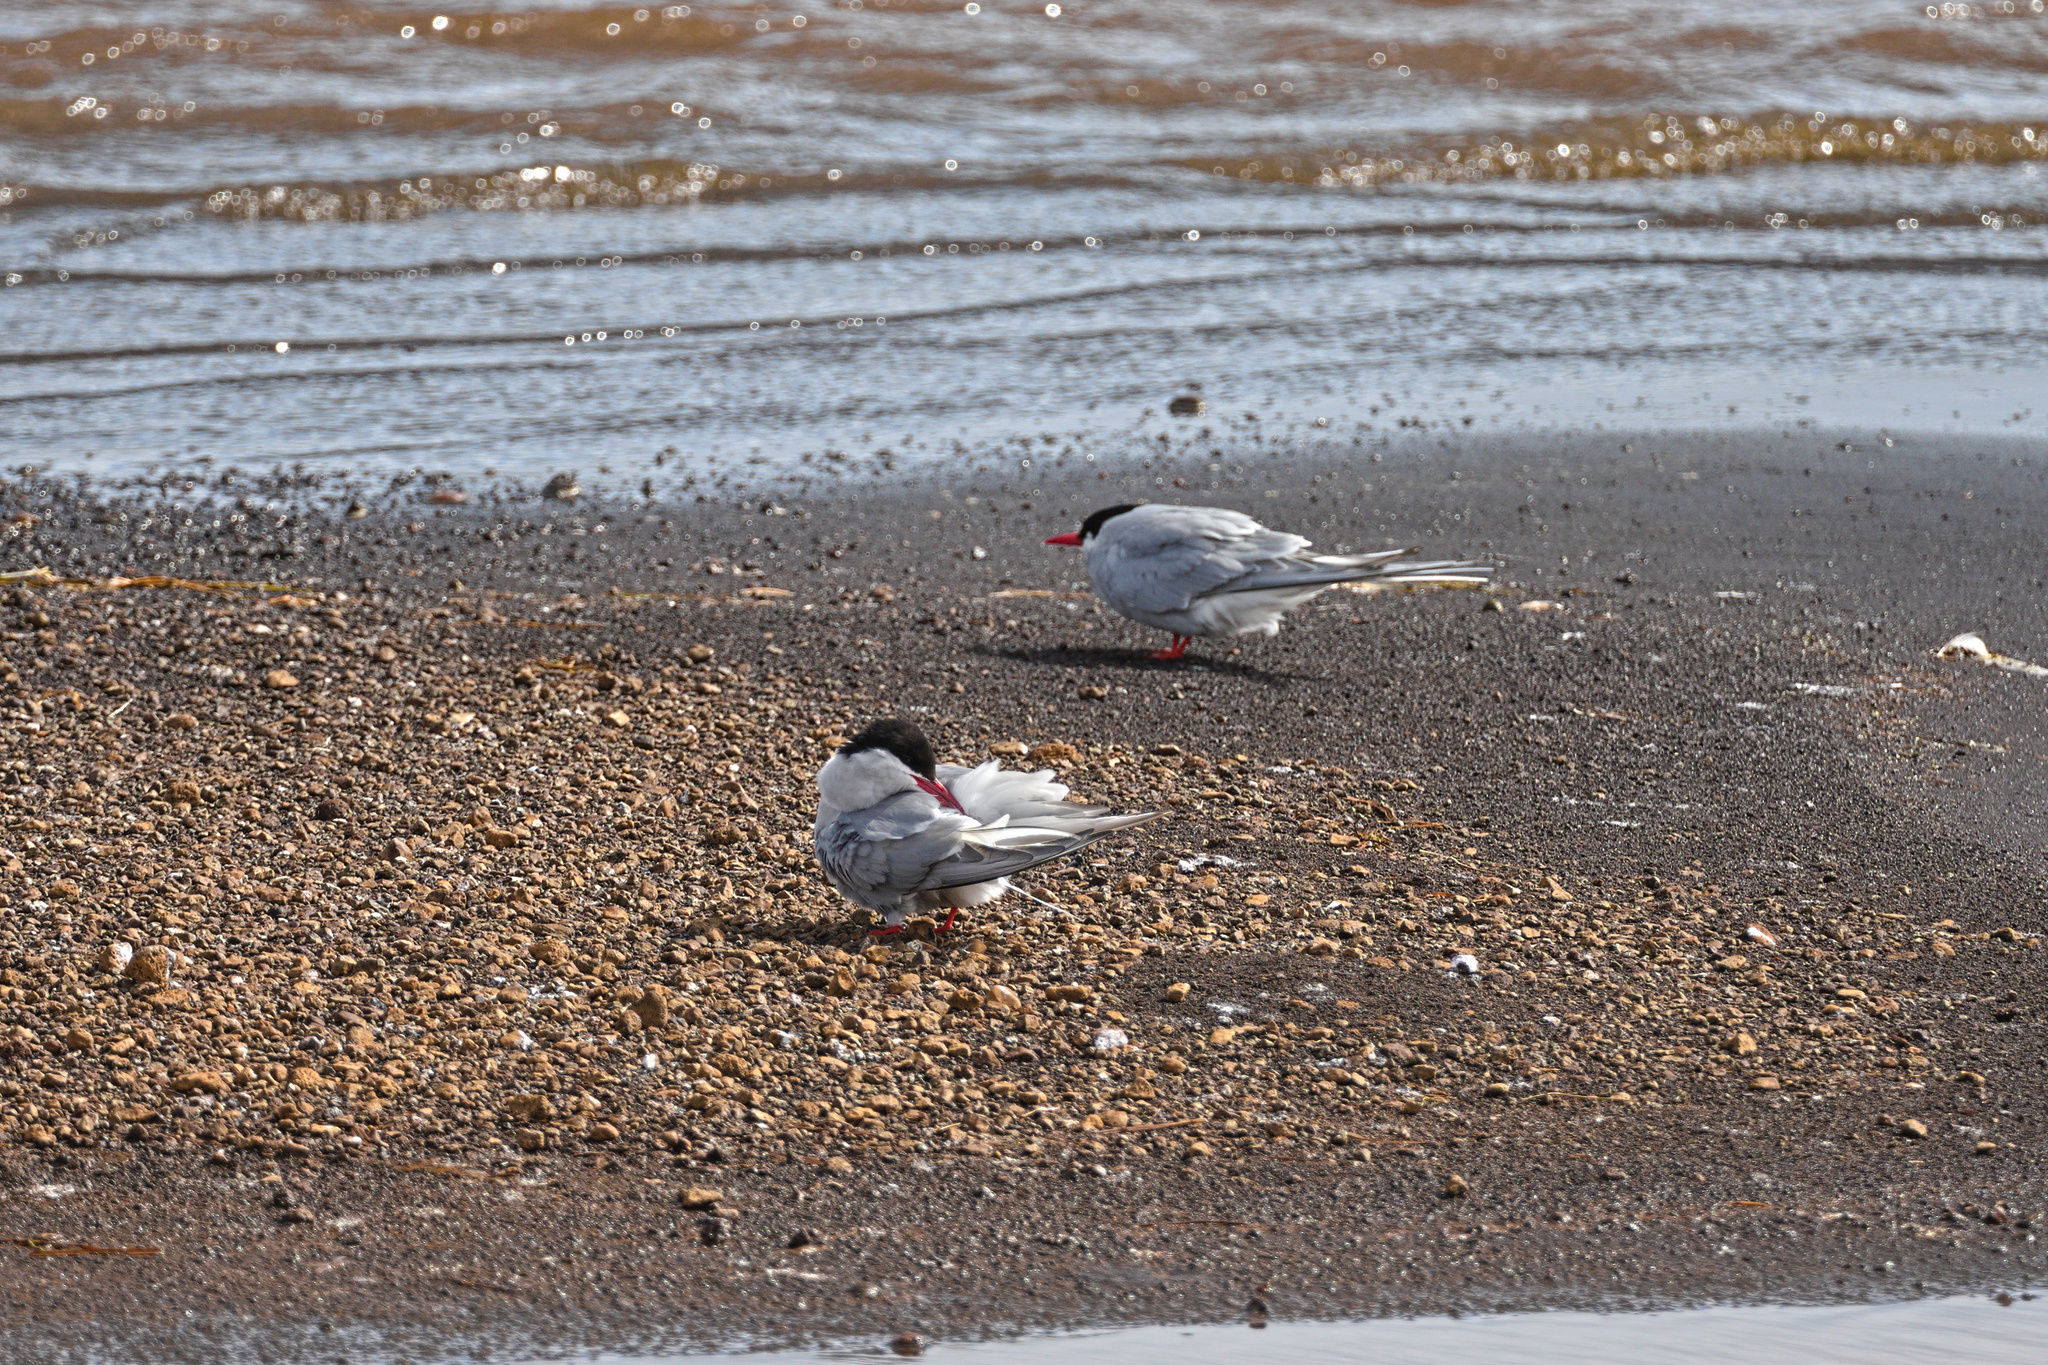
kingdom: Animalia
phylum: Chordata
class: Aves
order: Charadriiformes
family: Laridae
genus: Sterna
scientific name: Sterna paradisaea
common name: Arctic tern
